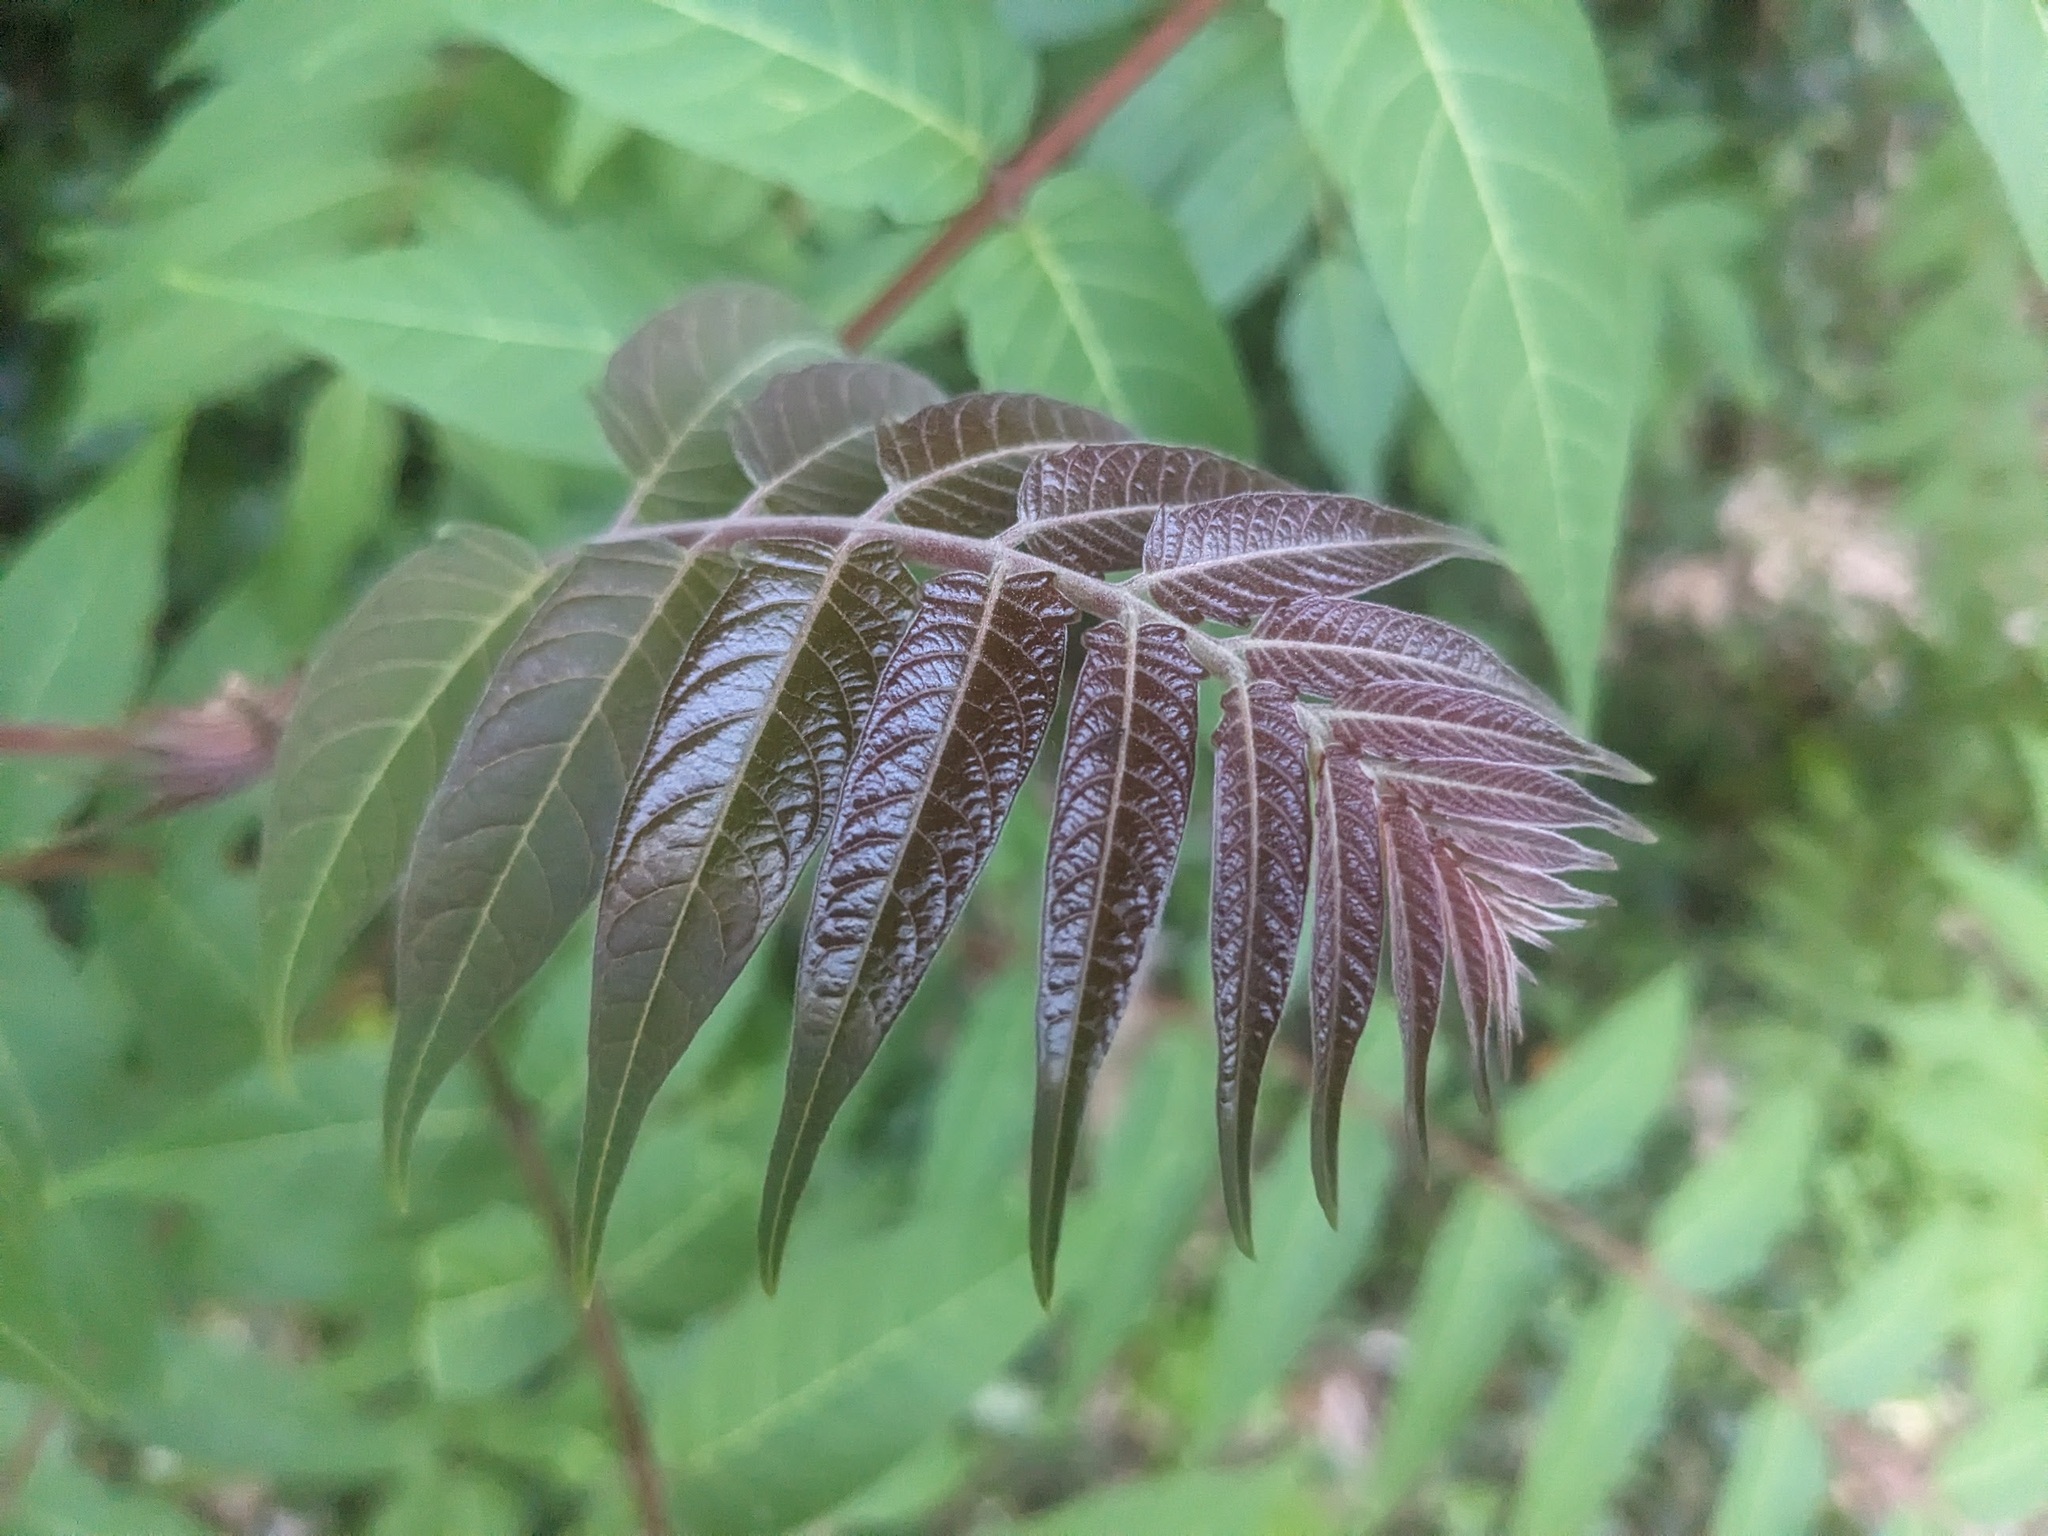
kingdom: Plantae
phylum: Tracheophyta
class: Magnoliopsida
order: Sapindales
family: Simaroubaceae
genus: Ailanthus
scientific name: Ailanthus altissima
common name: Tree-of-heaven
